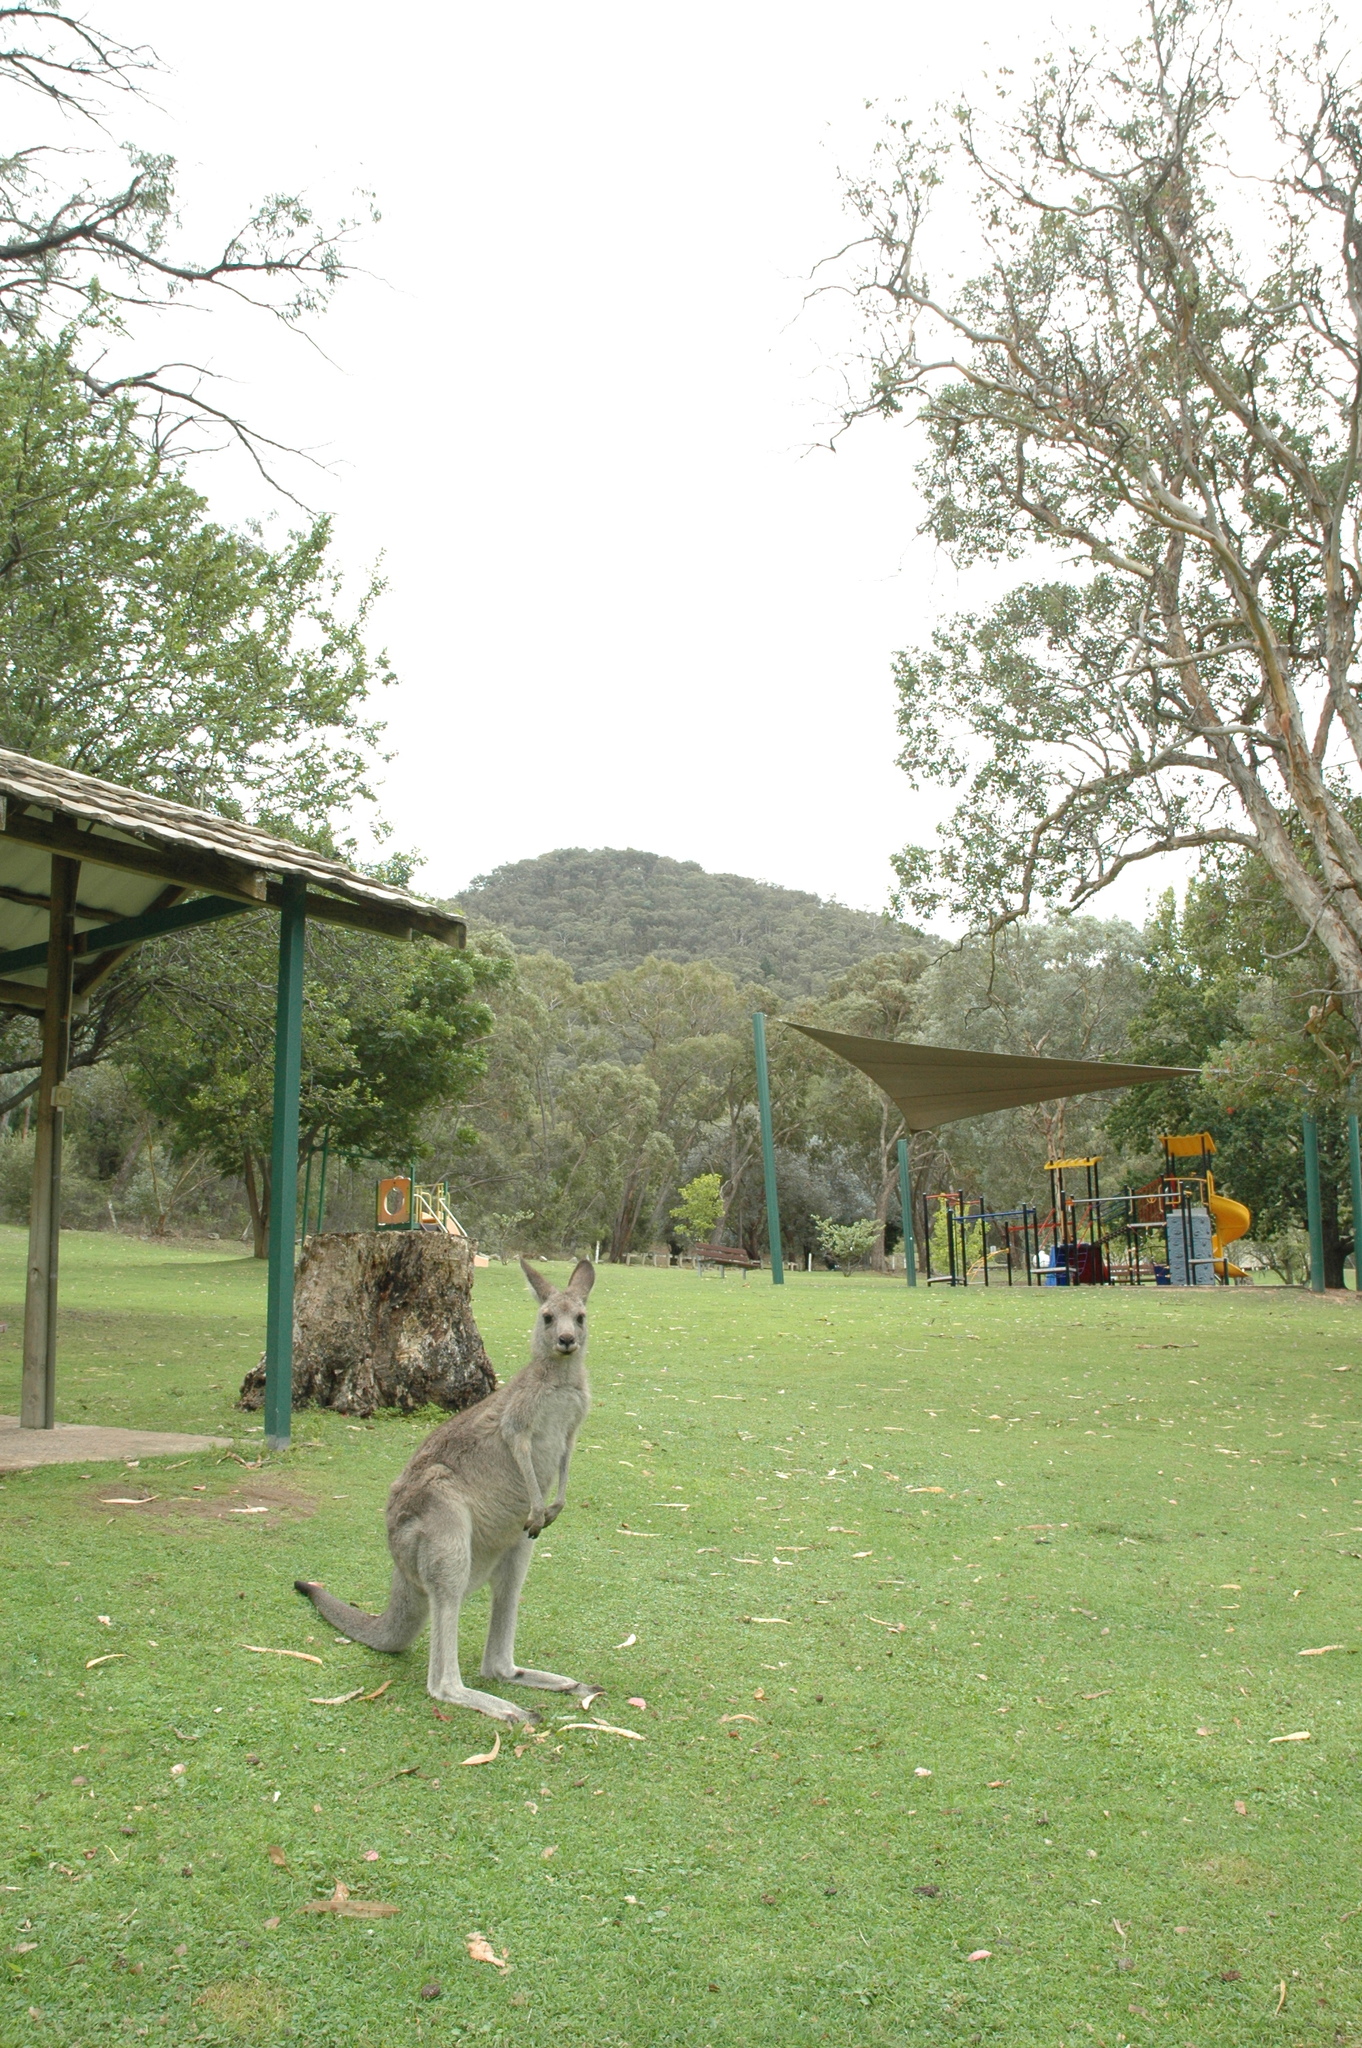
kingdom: Animalia
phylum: Chordata
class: Mammalia
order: Diprotodontia
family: Macropodidae
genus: Macropus
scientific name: Macropus giganteus
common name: Eastern grey kangaroo
